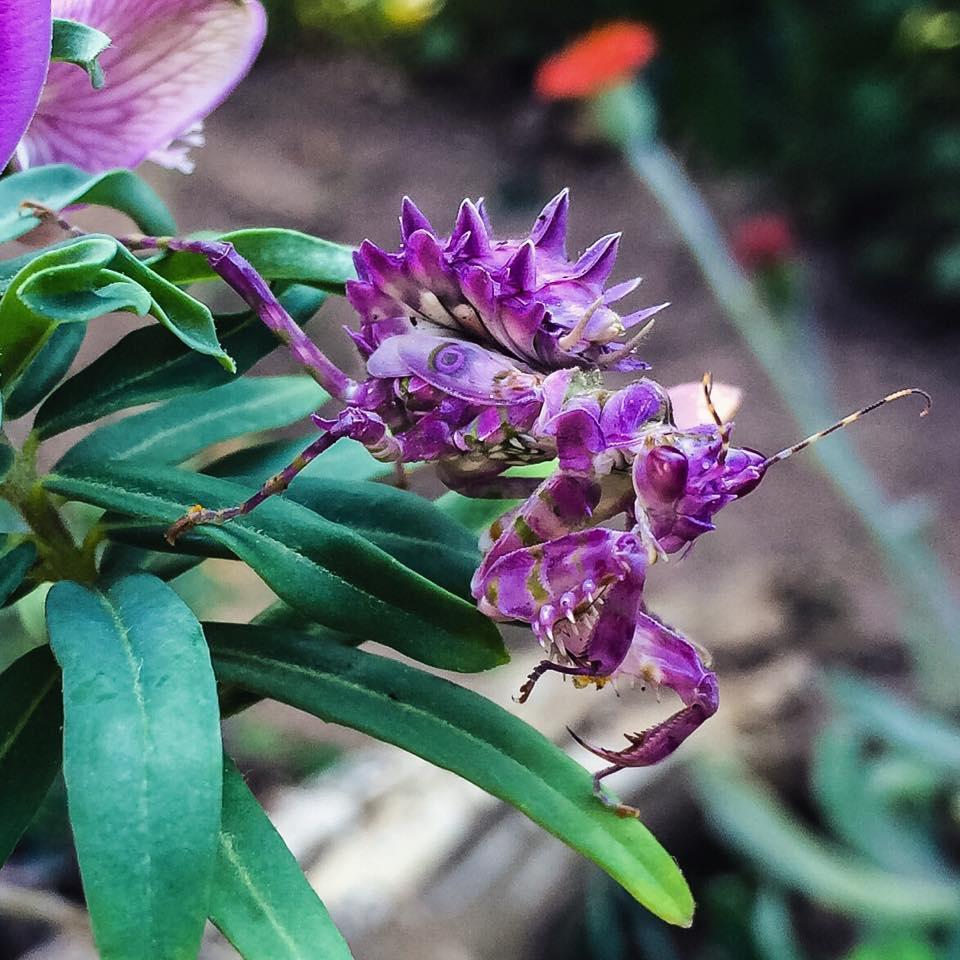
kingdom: Animalia
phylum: Arthropoda
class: Insecta
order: Mantodea
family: Hymenopodidae
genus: Pseudocreobotra
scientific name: Pseudocreobotra wahlbergi
